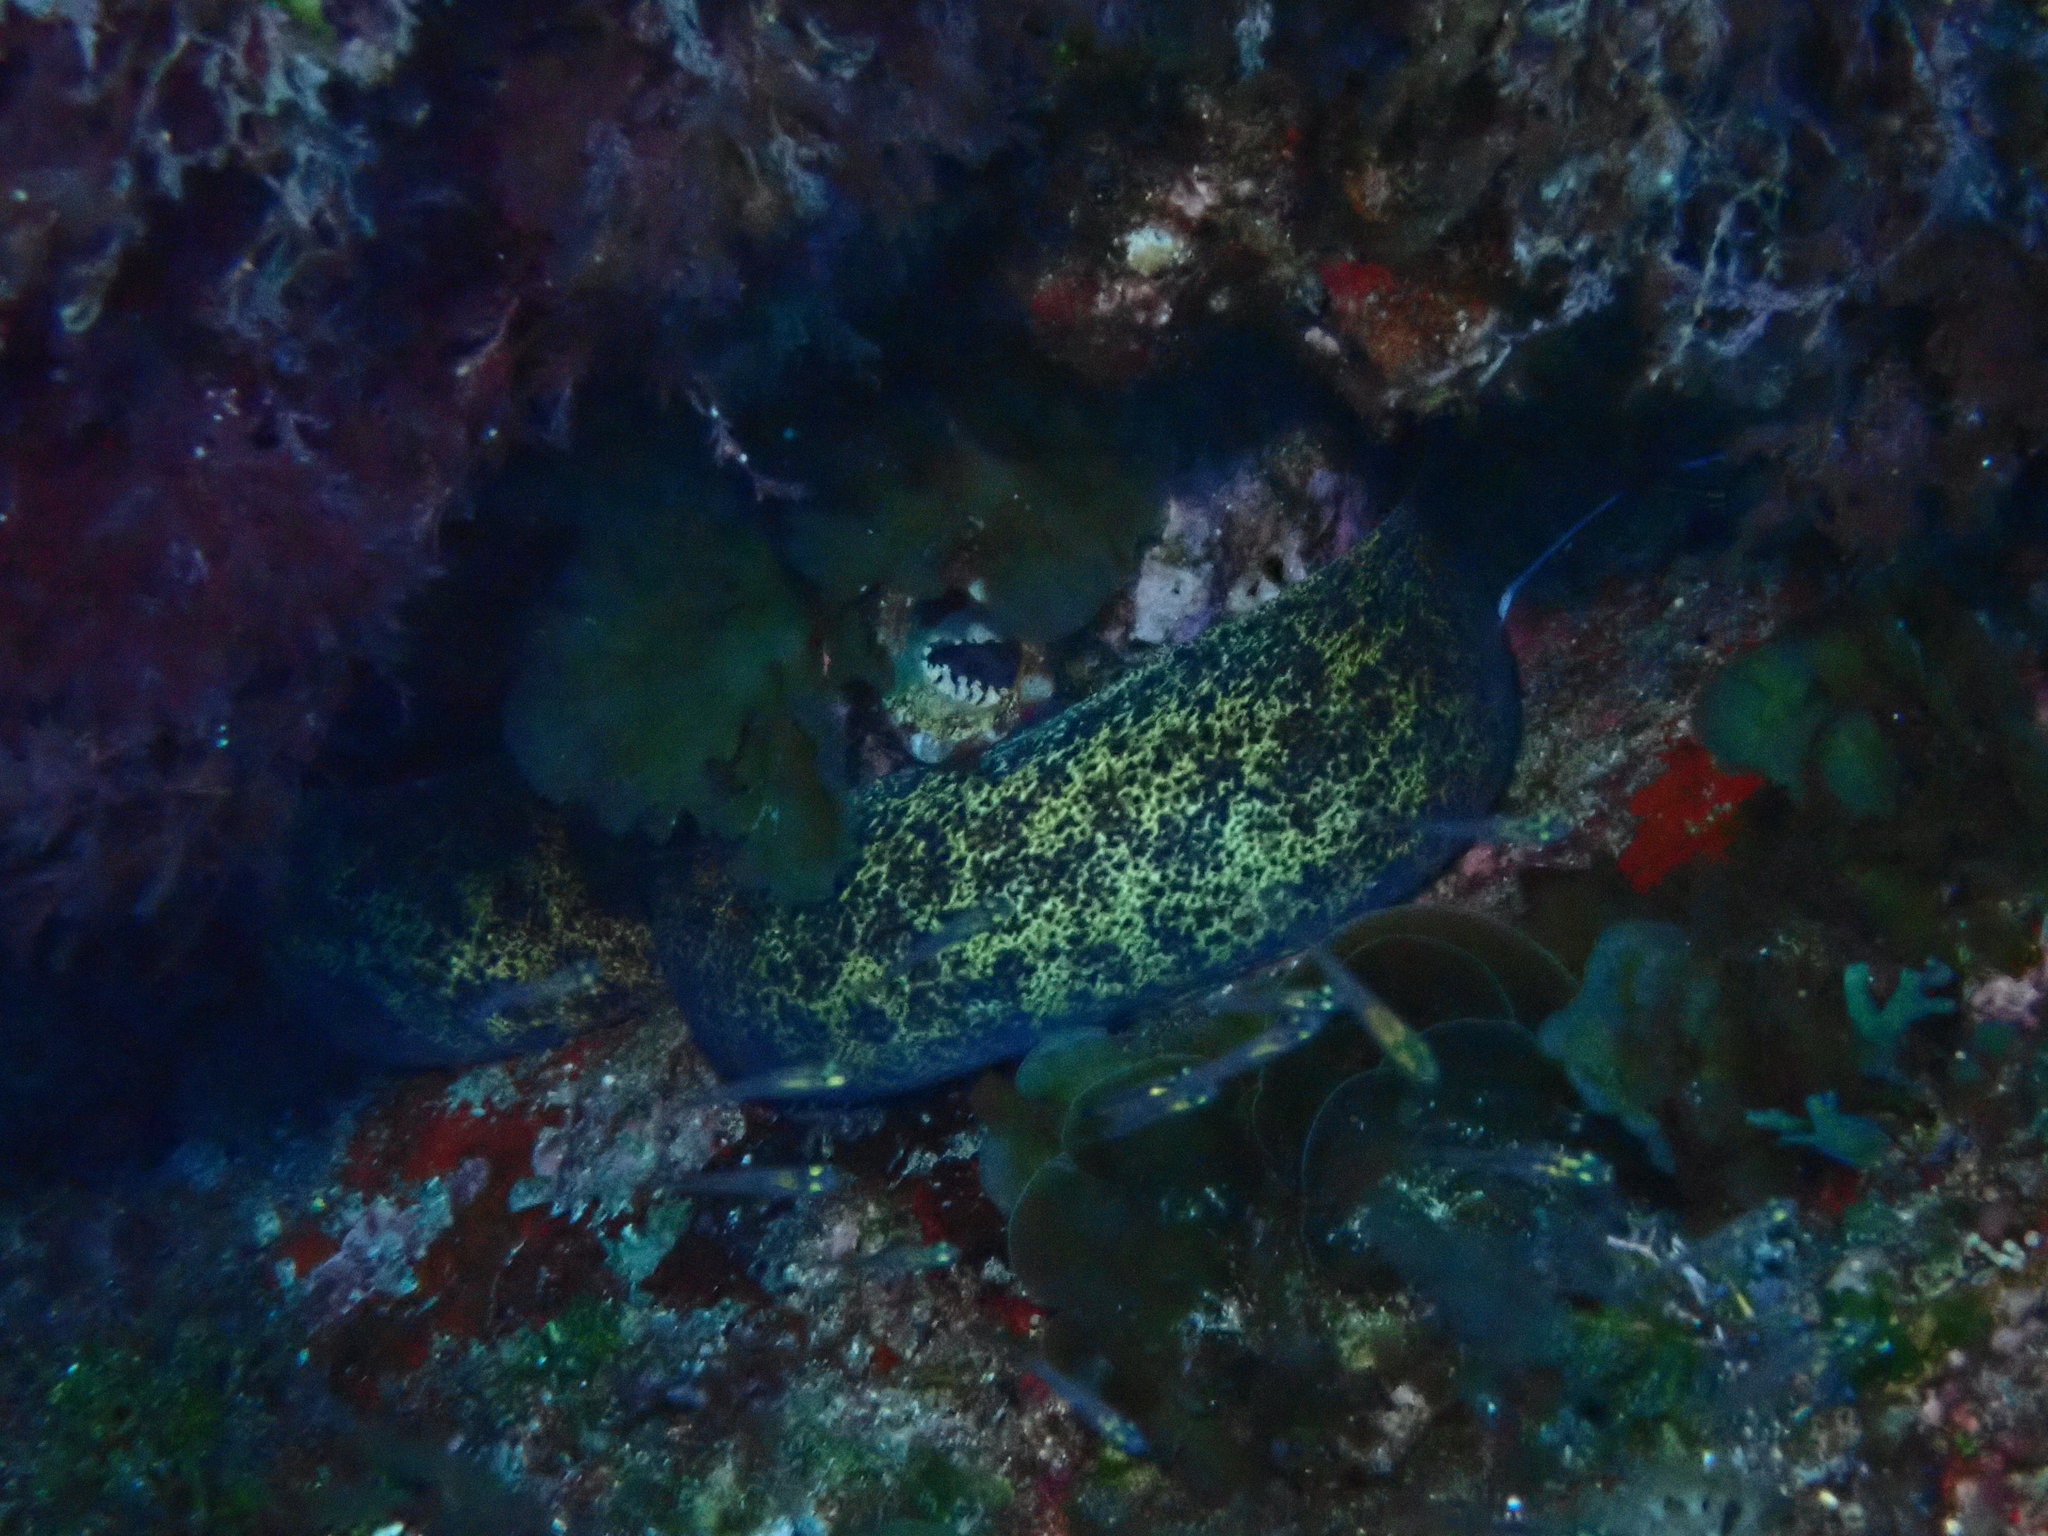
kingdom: Animalia
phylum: Chordata
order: Anguilliformes
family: Muraenidae
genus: Gymnothorax
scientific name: Gymnothorax annasona
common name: Lord howe island moray
